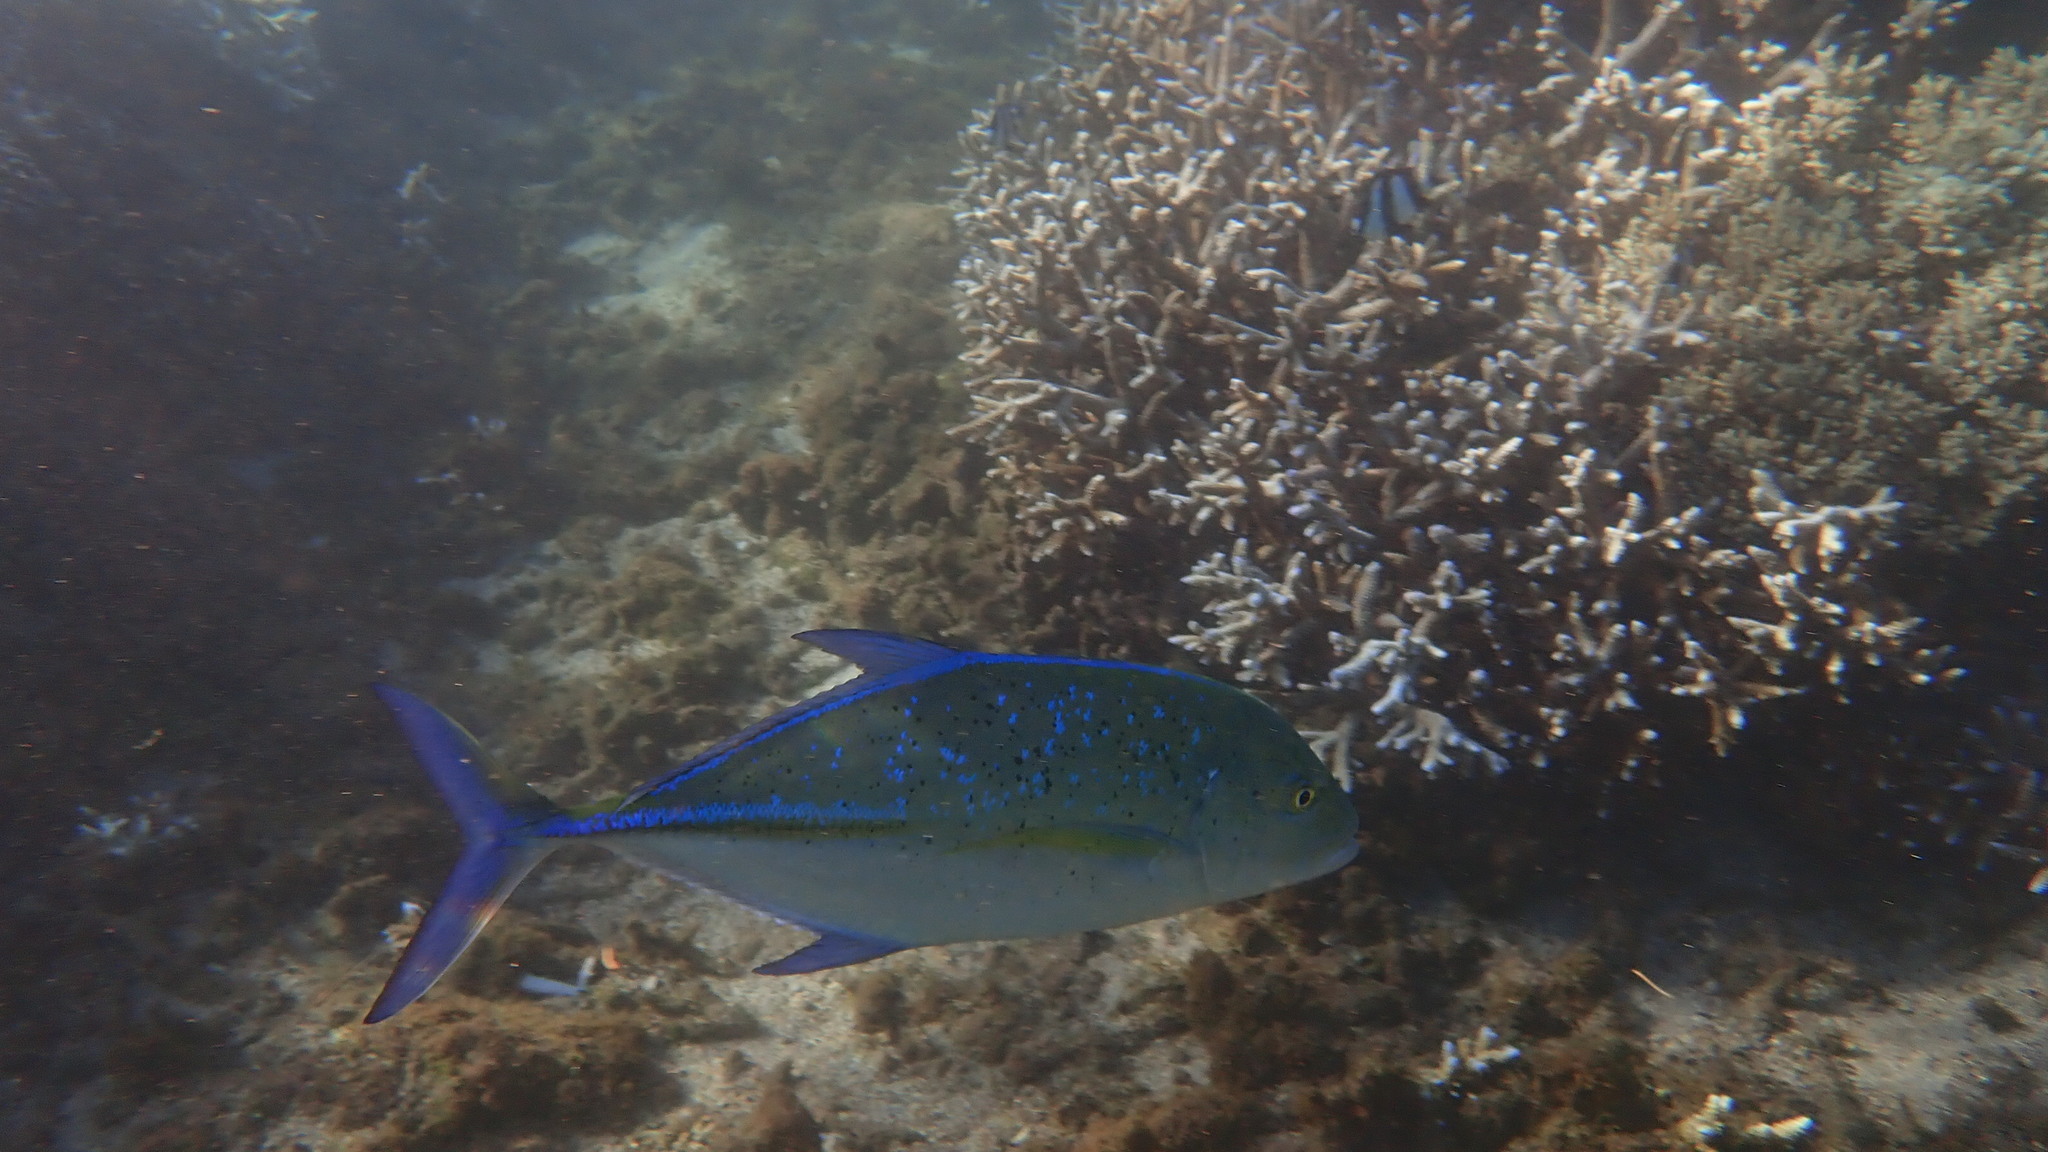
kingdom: Animalia
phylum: Chordata
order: Perciformes
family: Carangidae
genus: Caranx
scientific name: Caranx melampygus
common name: Bluefin trevally
